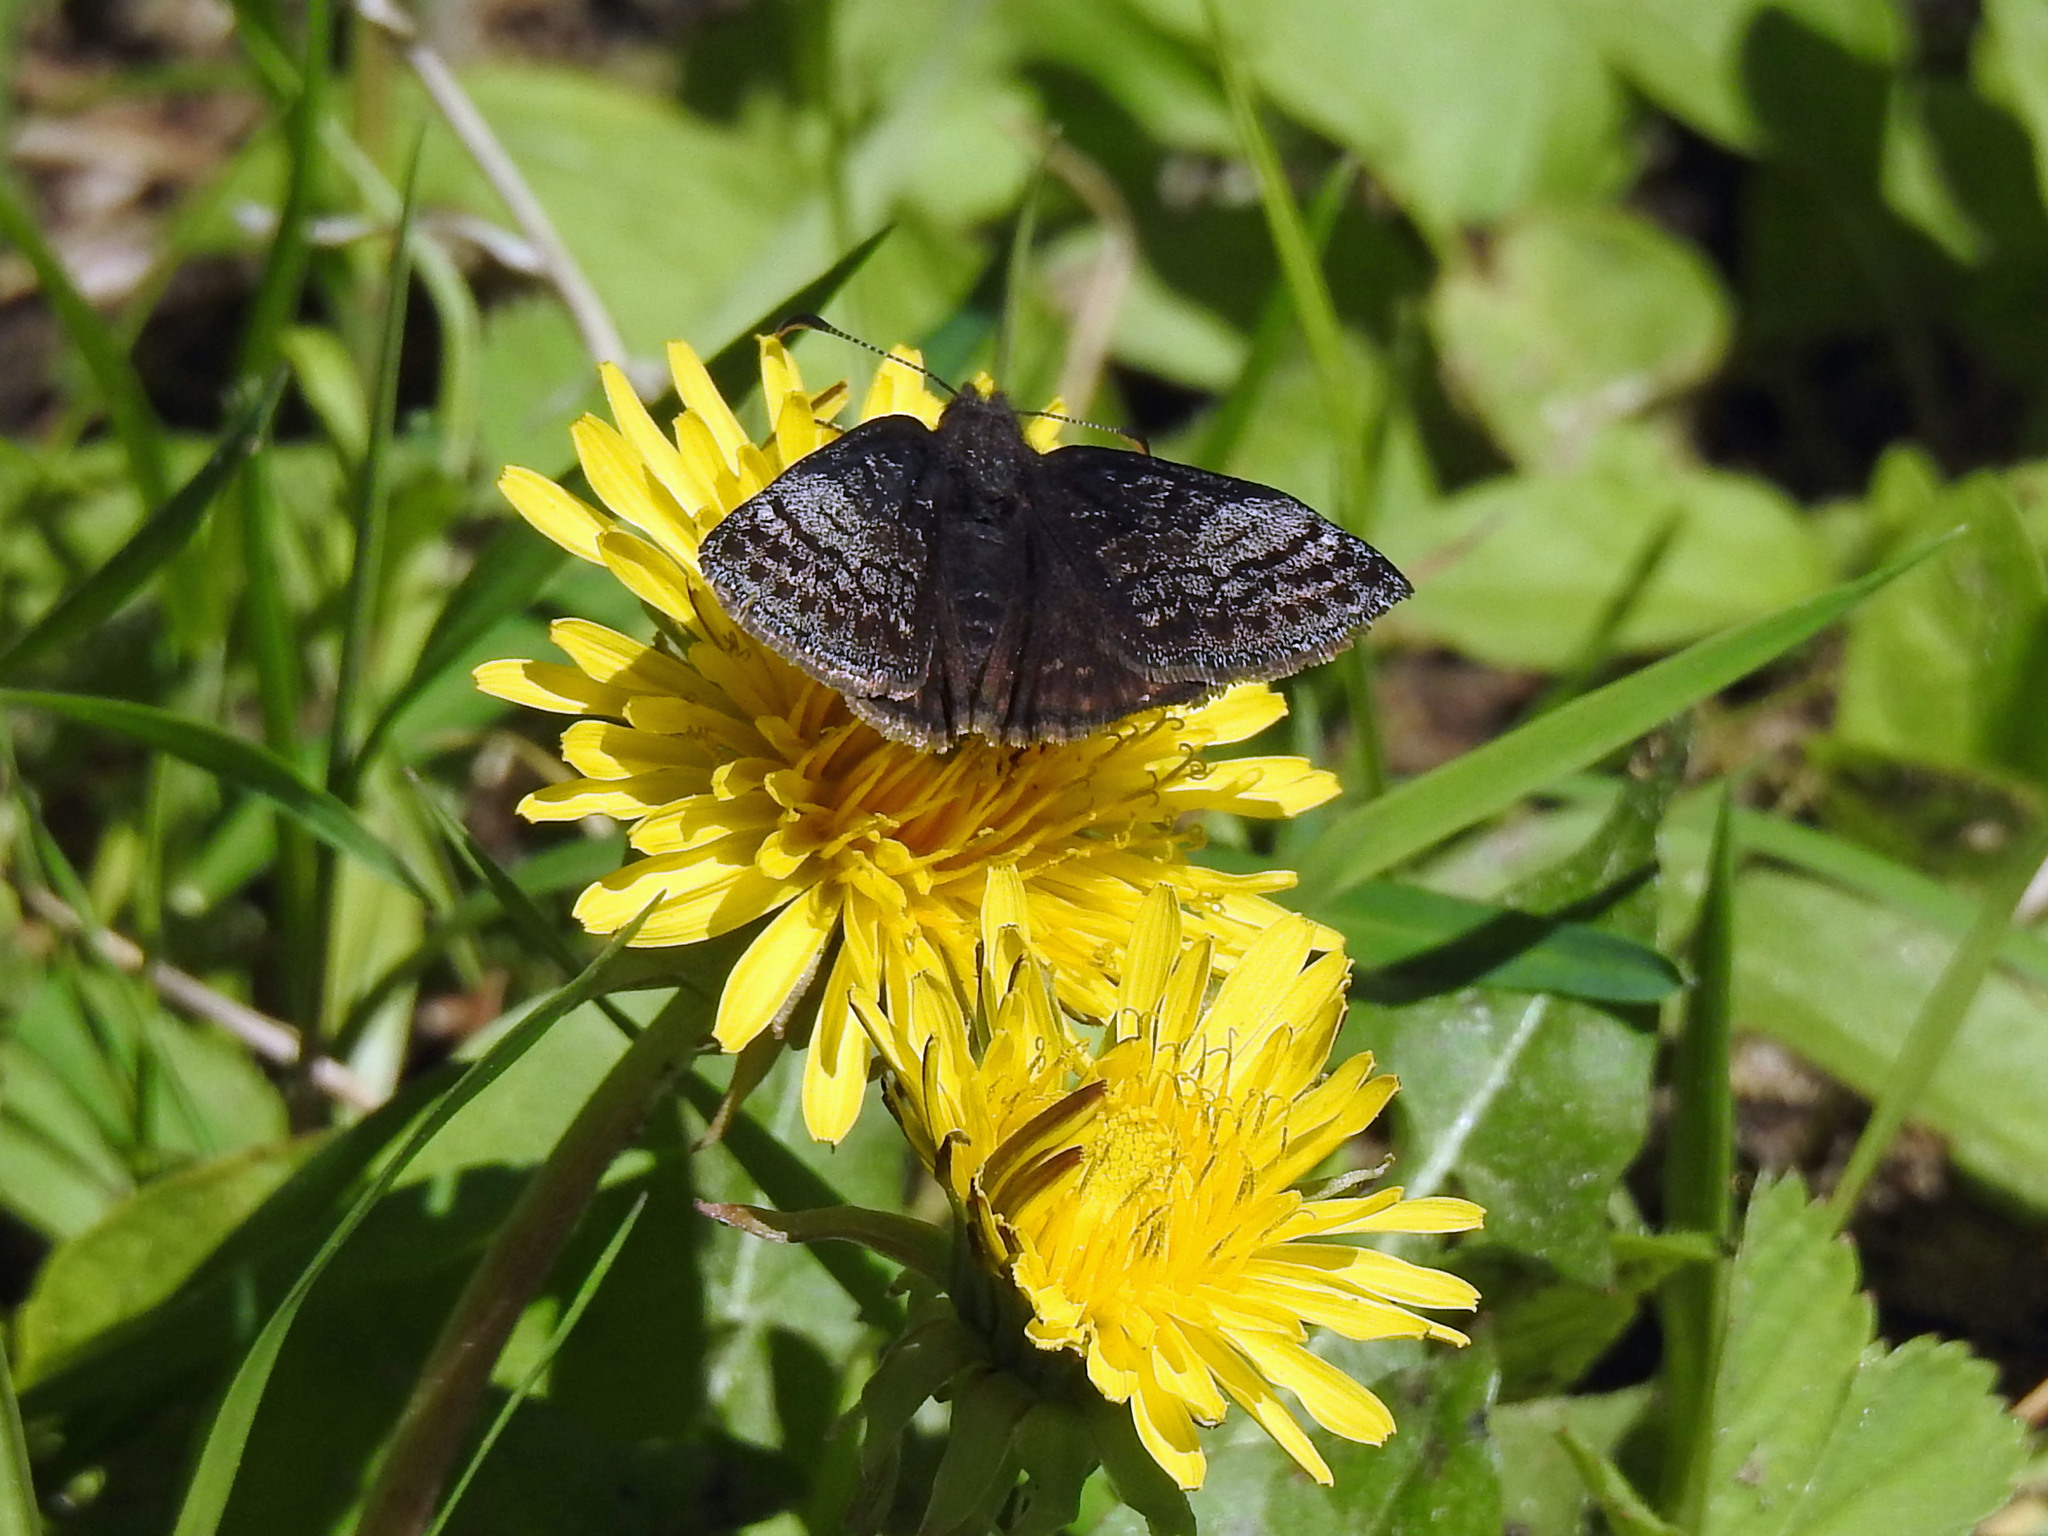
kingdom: Animalia
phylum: Arthropoda
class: Insecta
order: Lepidoptera
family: Hesperiidae
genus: Erynnis
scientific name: Erynnis icelus
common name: Dreamy duskywing
